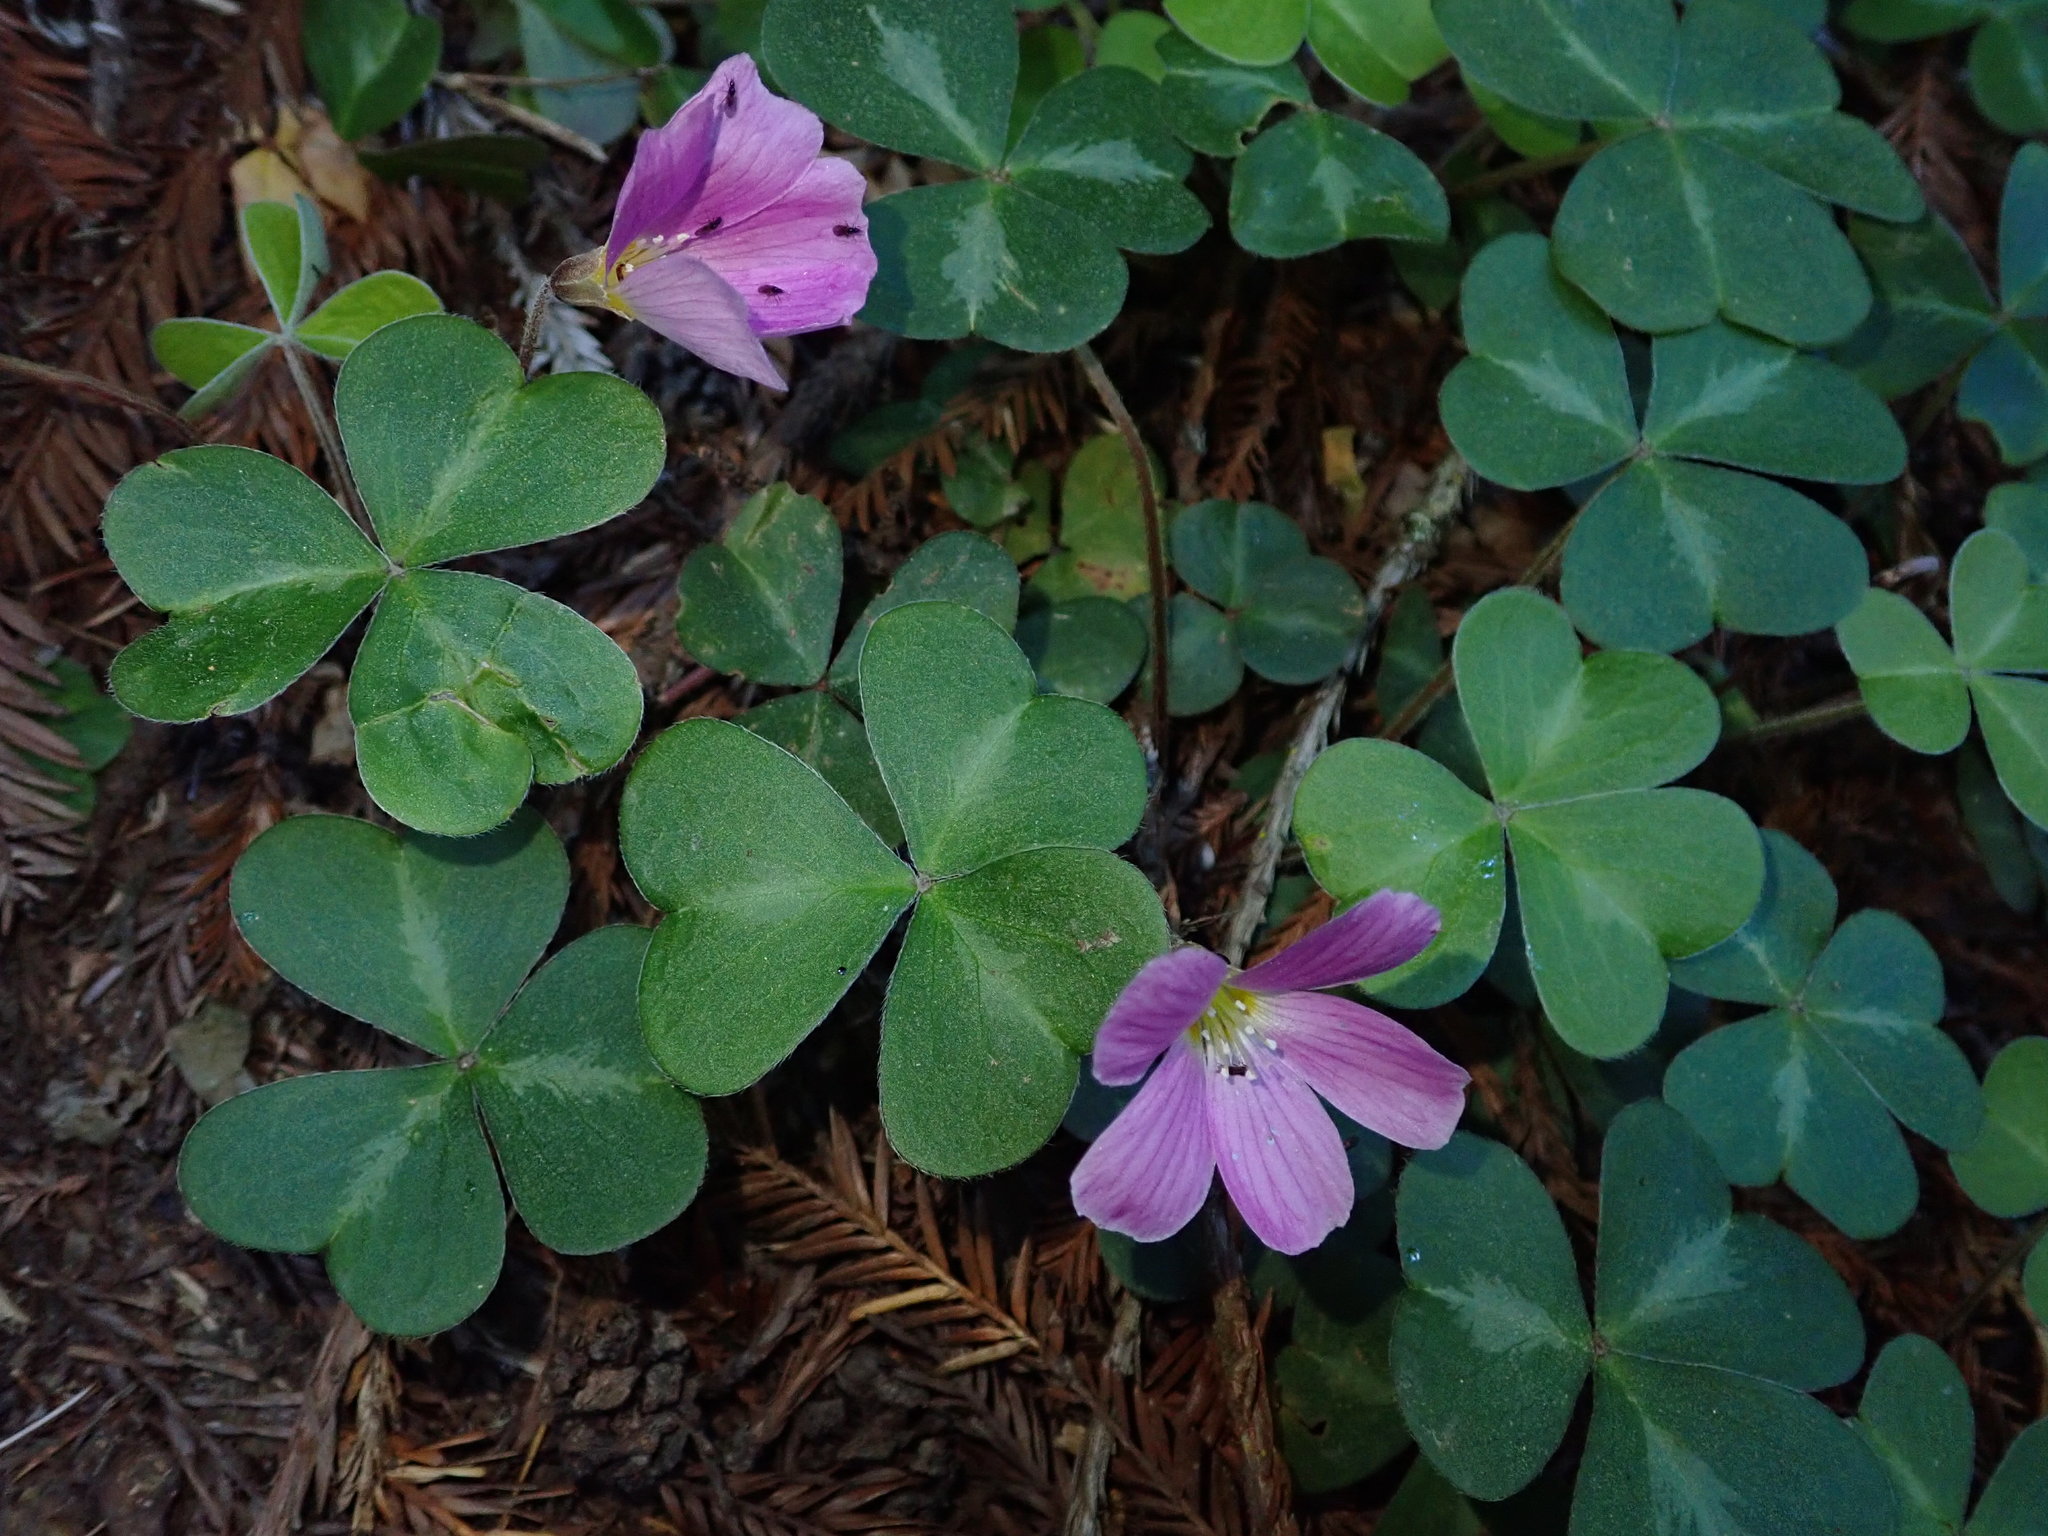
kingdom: Plantae
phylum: Tracheophyta
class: Magnoliopsida
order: Oxalidales
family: Oxalidaceae
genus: Oxalis
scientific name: Oxalis oregana
